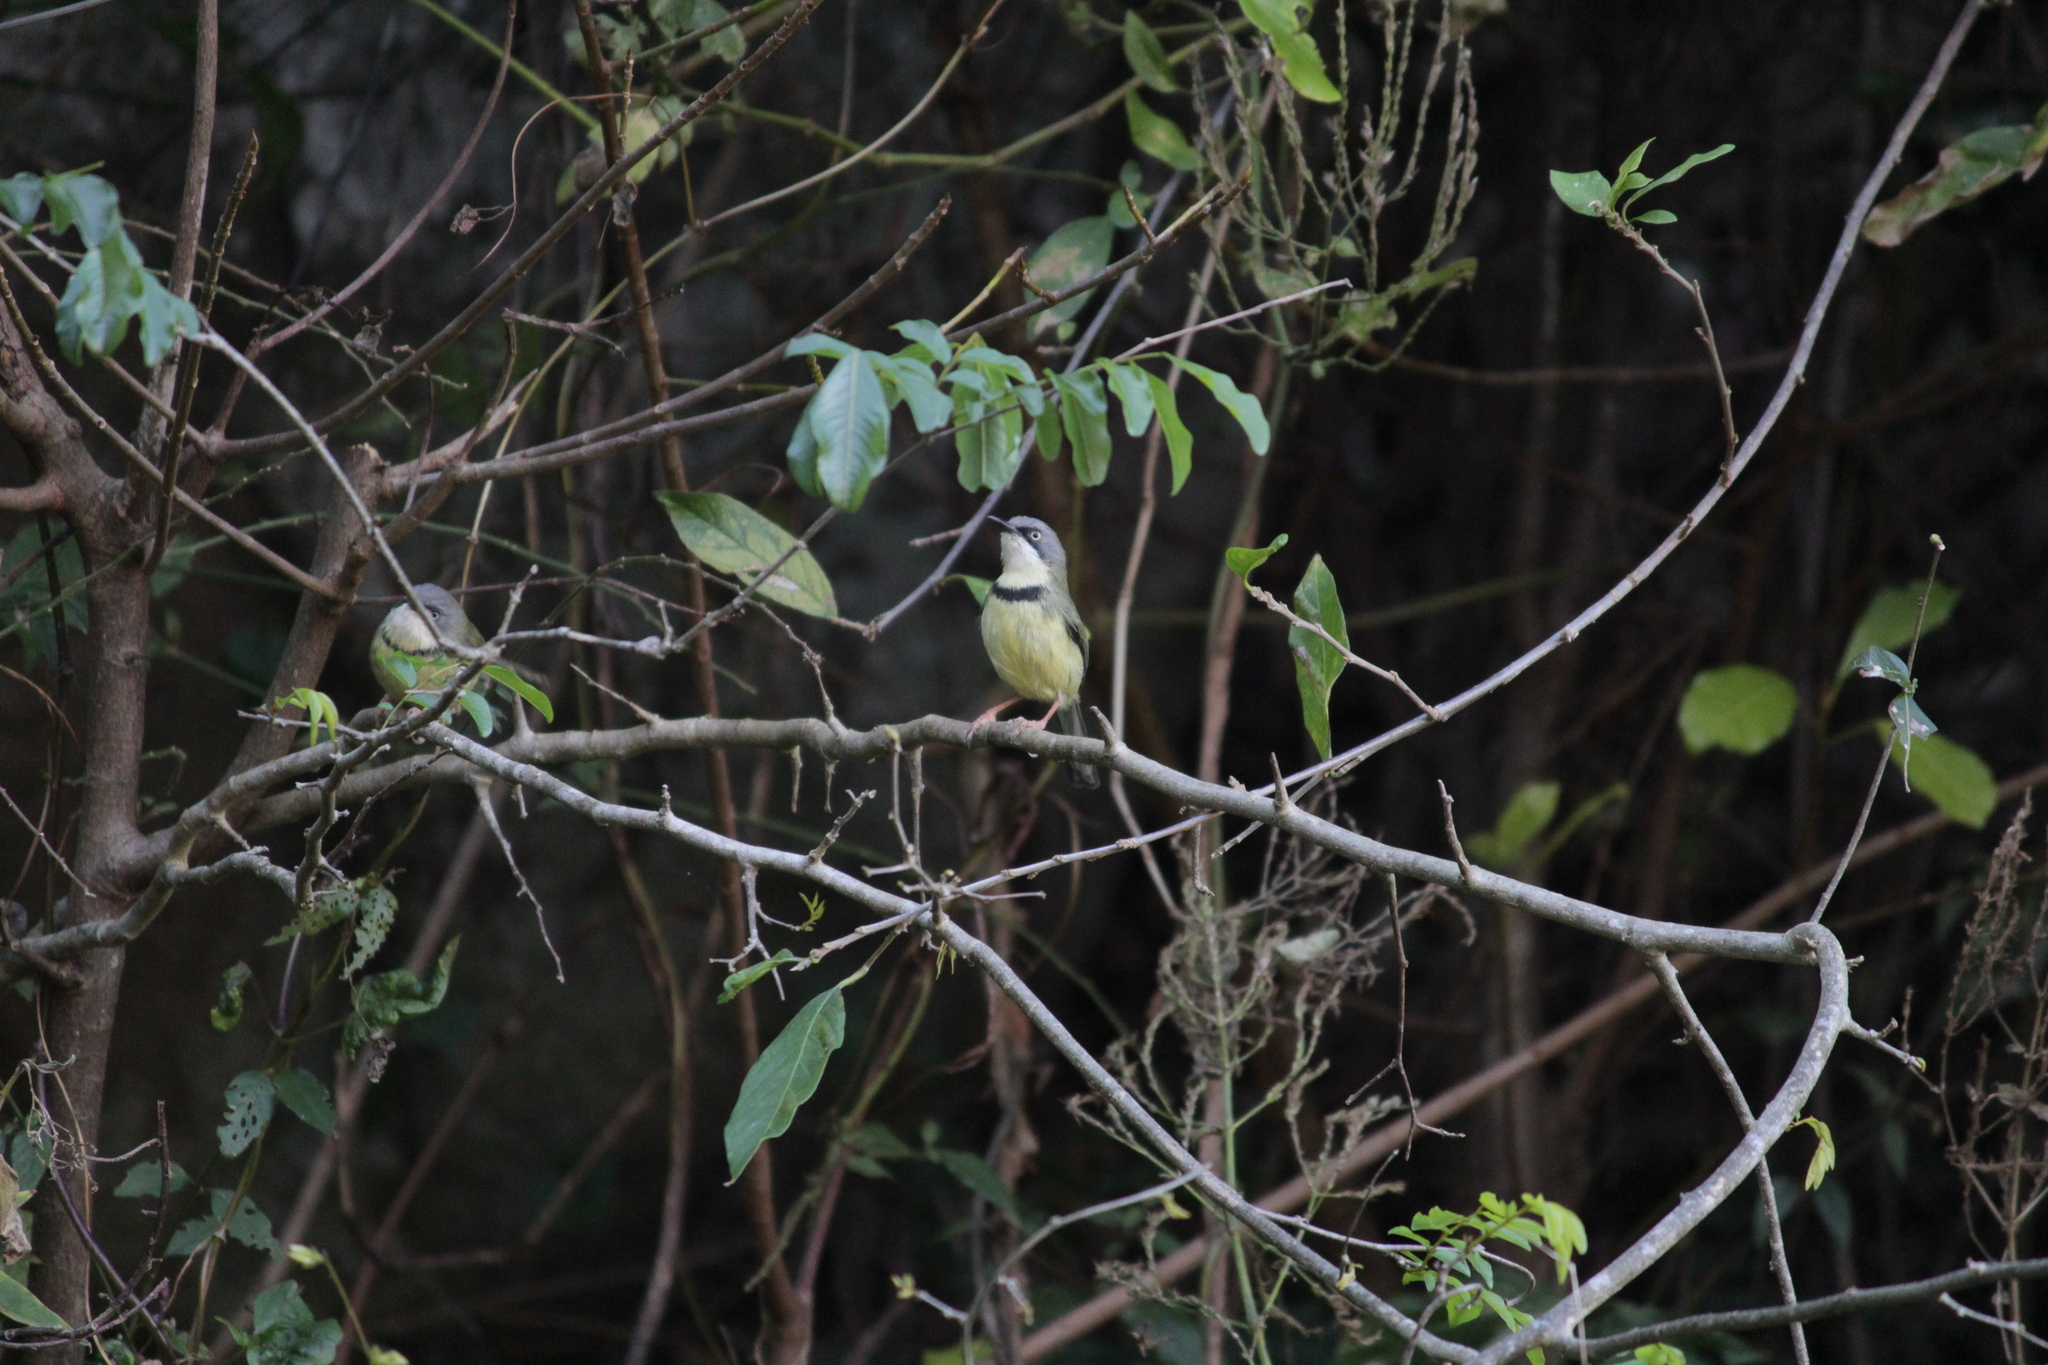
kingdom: Animalia
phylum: Chordata
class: Aves
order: Passeriformes
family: Cisticolidae
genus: Apalis
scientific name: Apalis thoracica
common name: Bar-throated apalis
